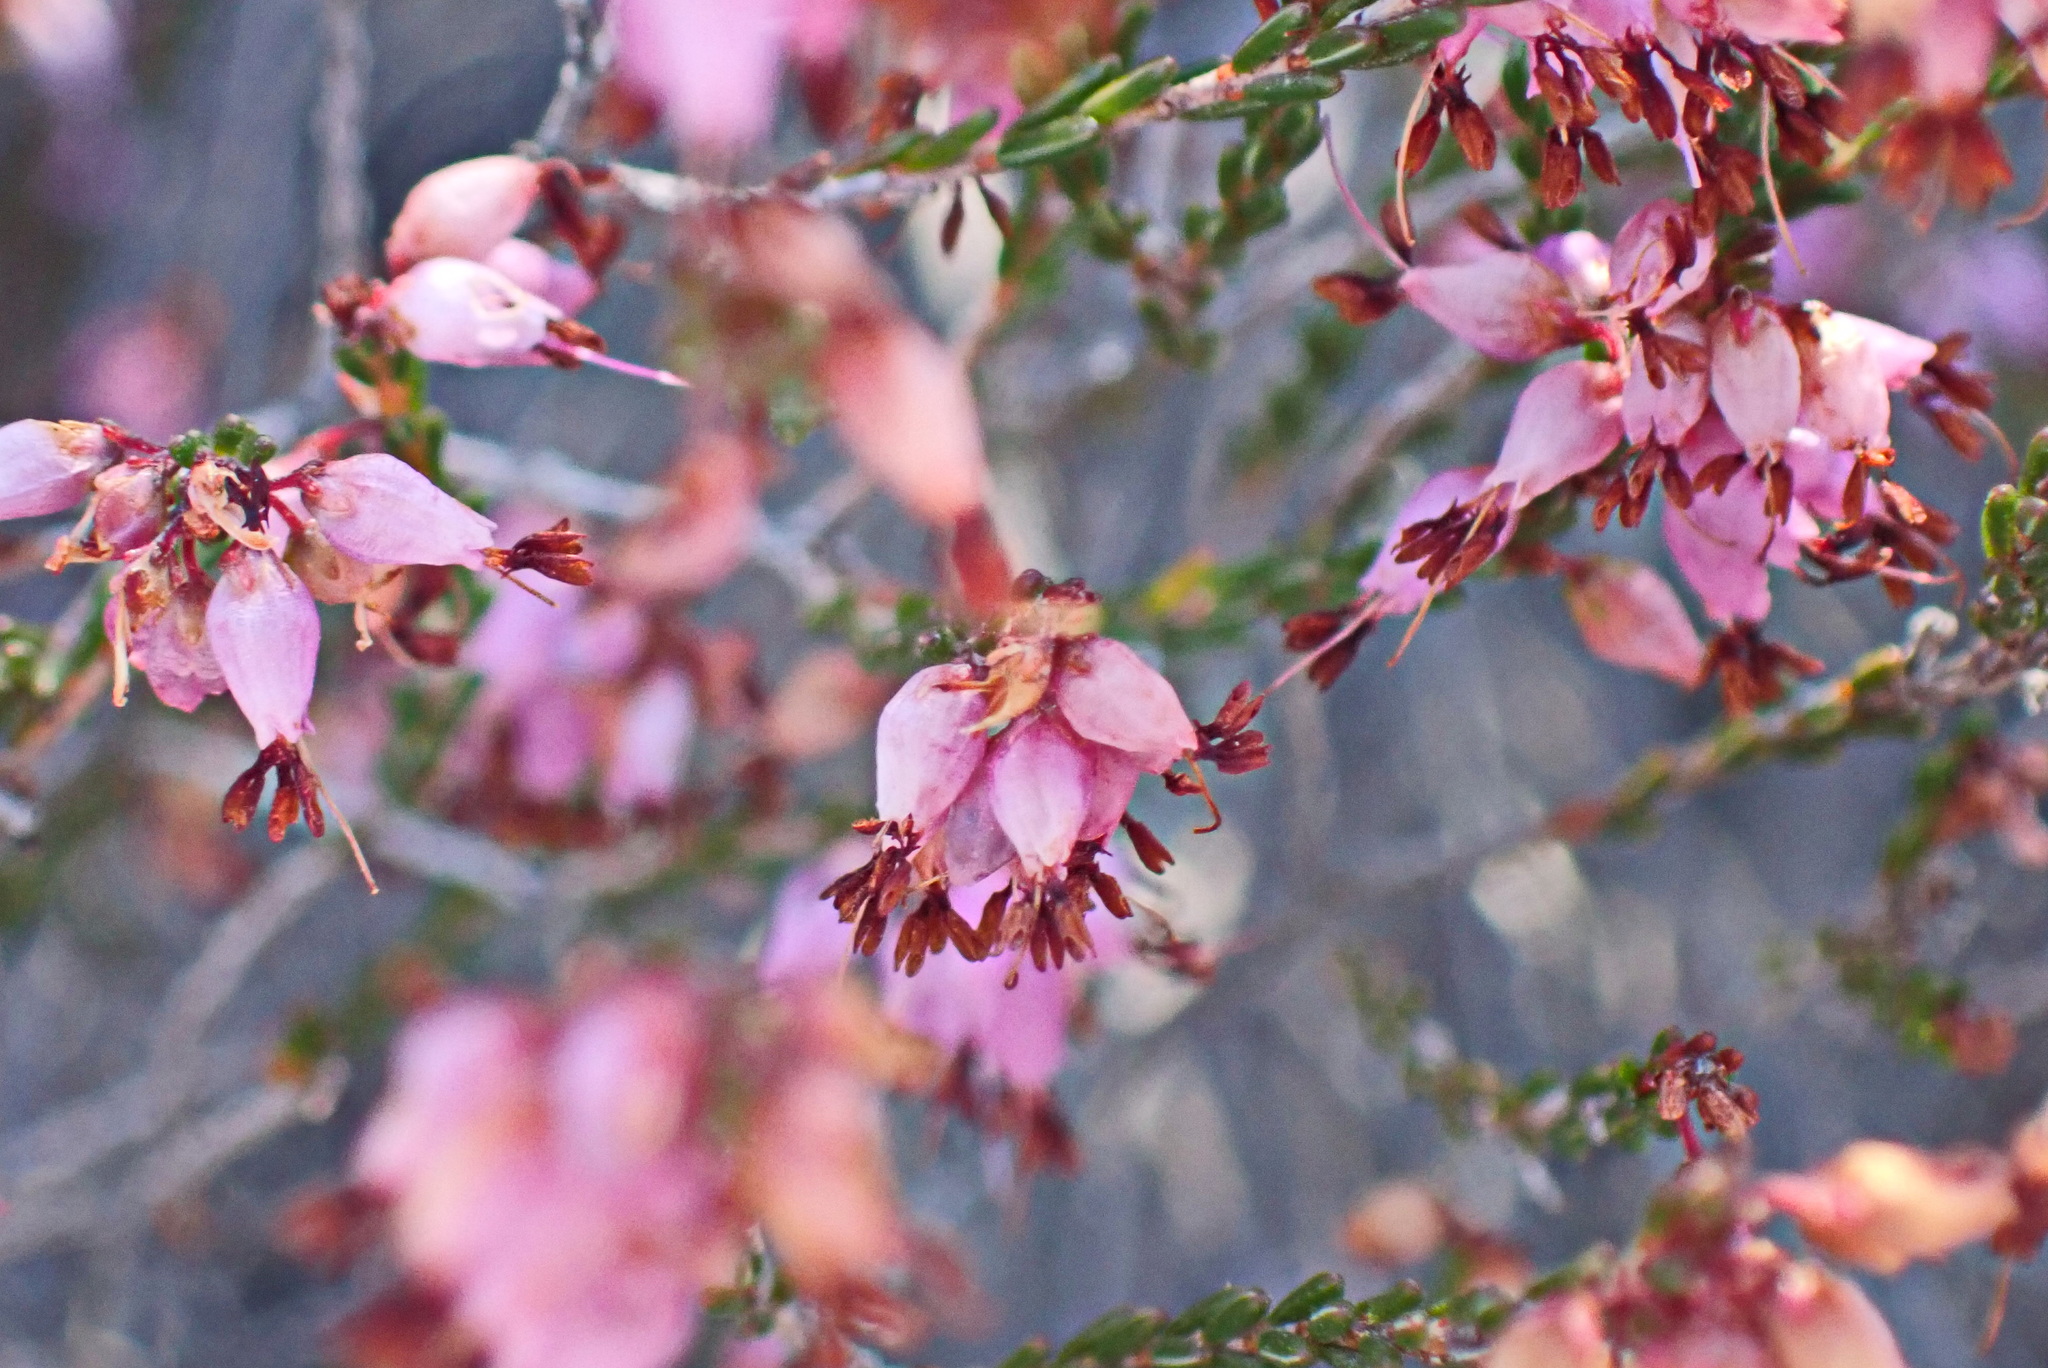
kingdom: Plantae
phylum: Tracheophyta
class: Magnoliopsida
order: Ericales
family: Ericaceae
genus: Erica
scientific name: Erica rosacea
